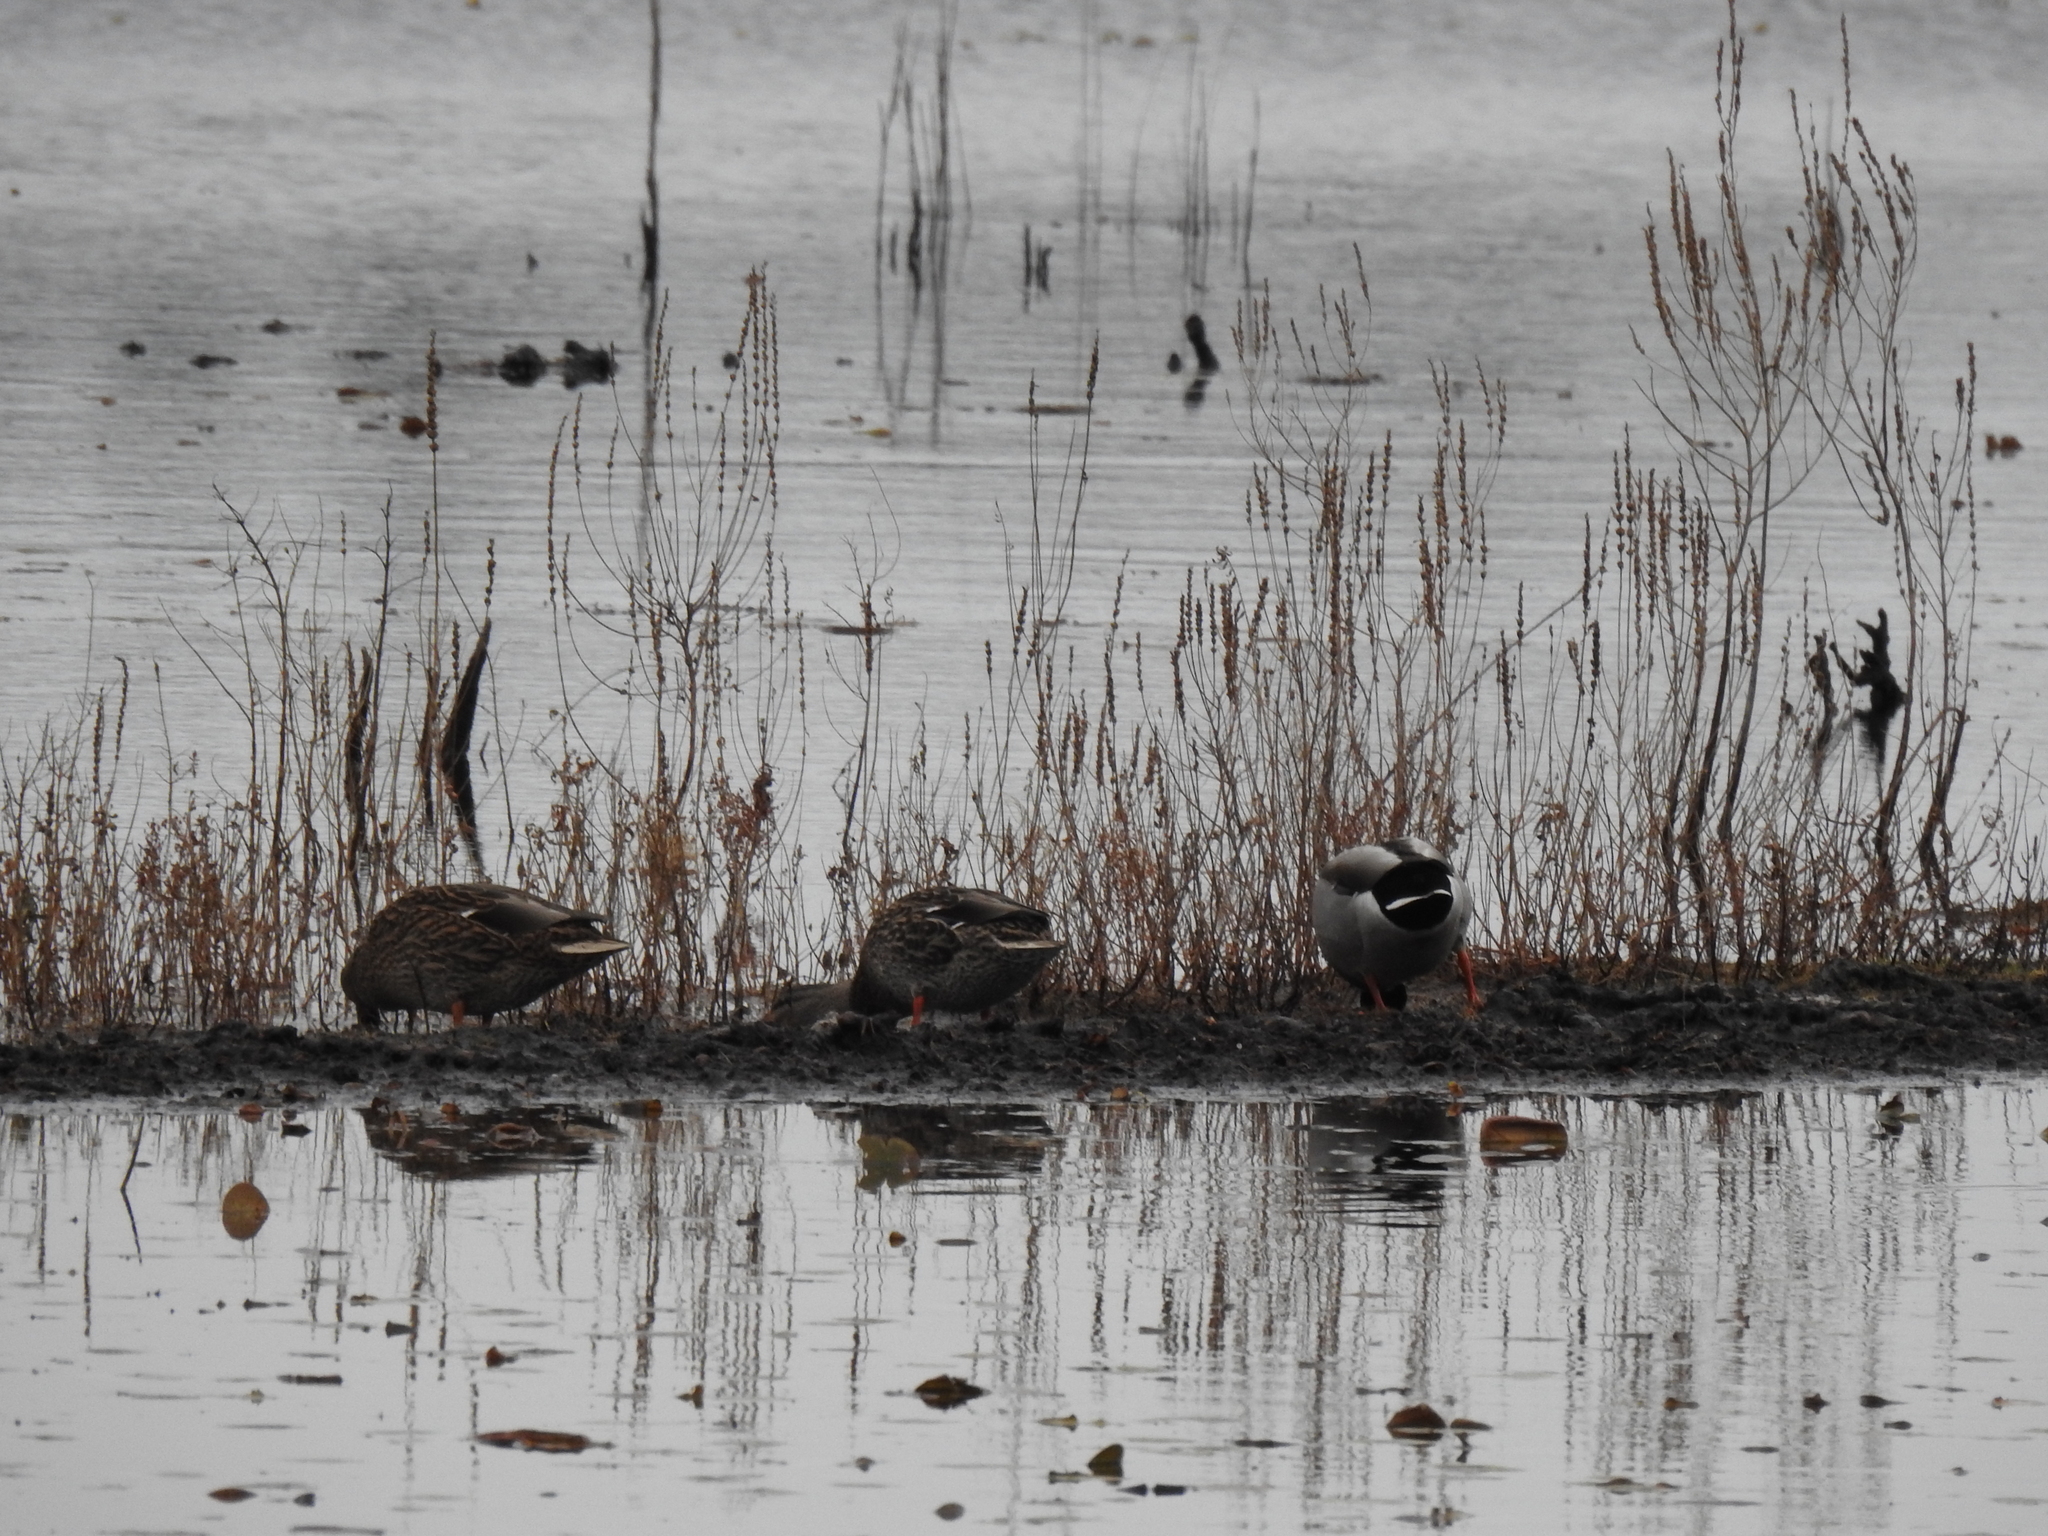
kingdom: Animalia
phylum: Chordata
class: Aves
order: Anseriformes
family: Anatidae
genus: Anas
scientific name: Anas platyrhynchos
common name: Mallard
